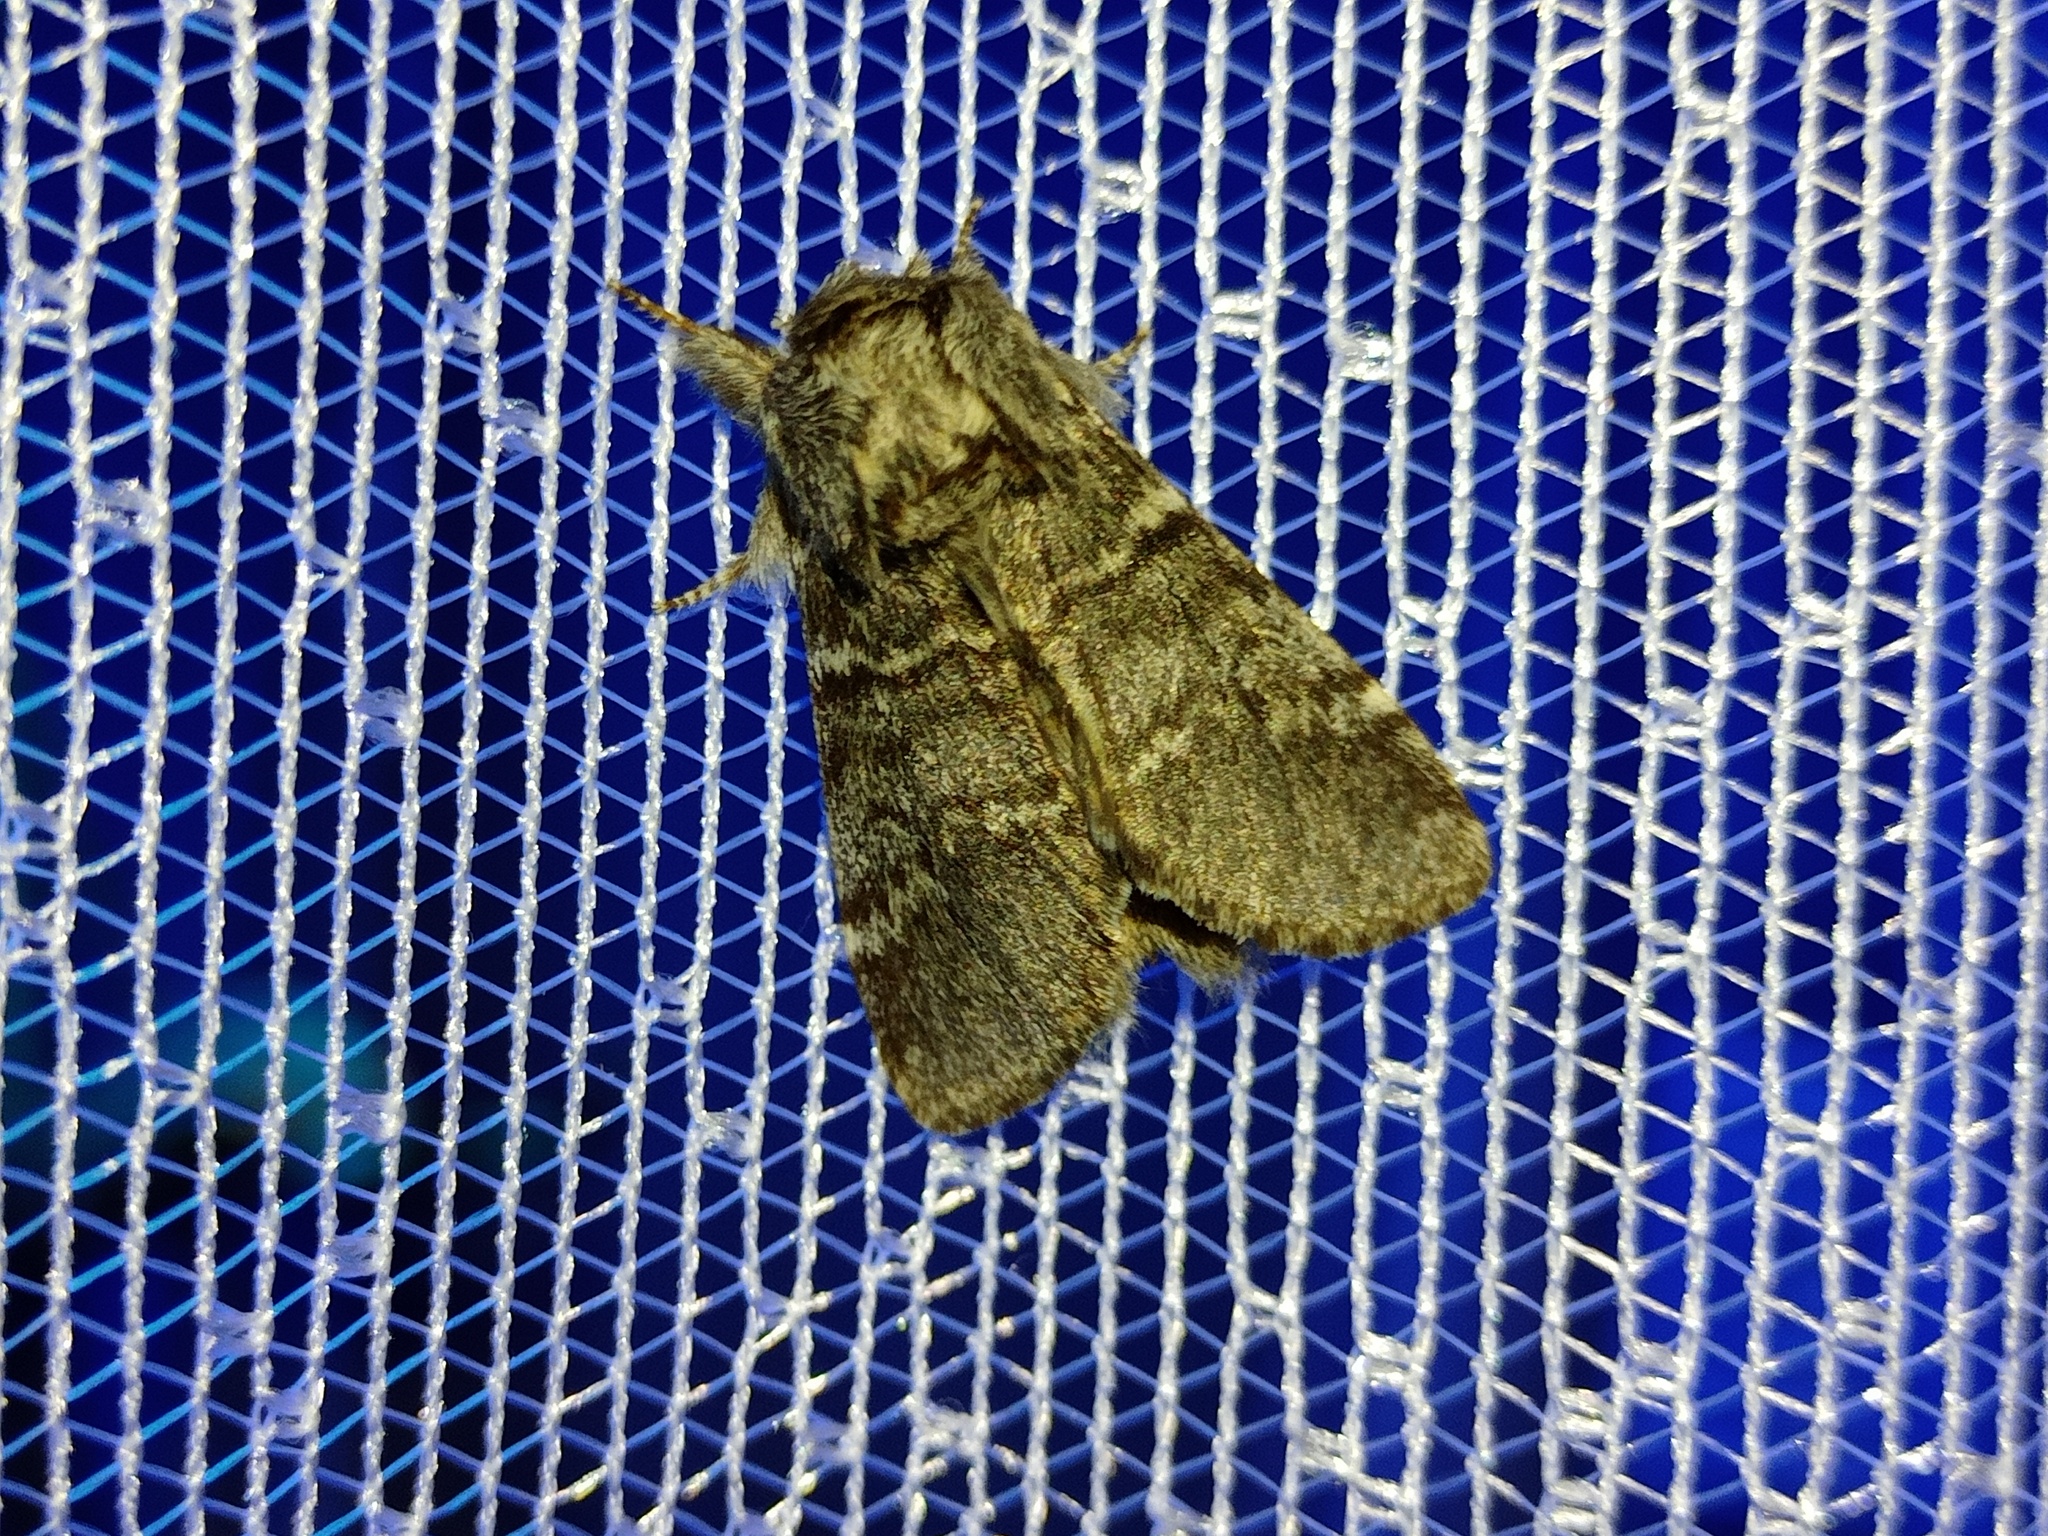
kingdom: Animalia
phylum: Arthropoda
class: Insecta
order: Lepidoptera
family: Notodontidae
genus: Drymonia
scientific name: Drymonia ruficornis
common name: Lunar marbled brown
